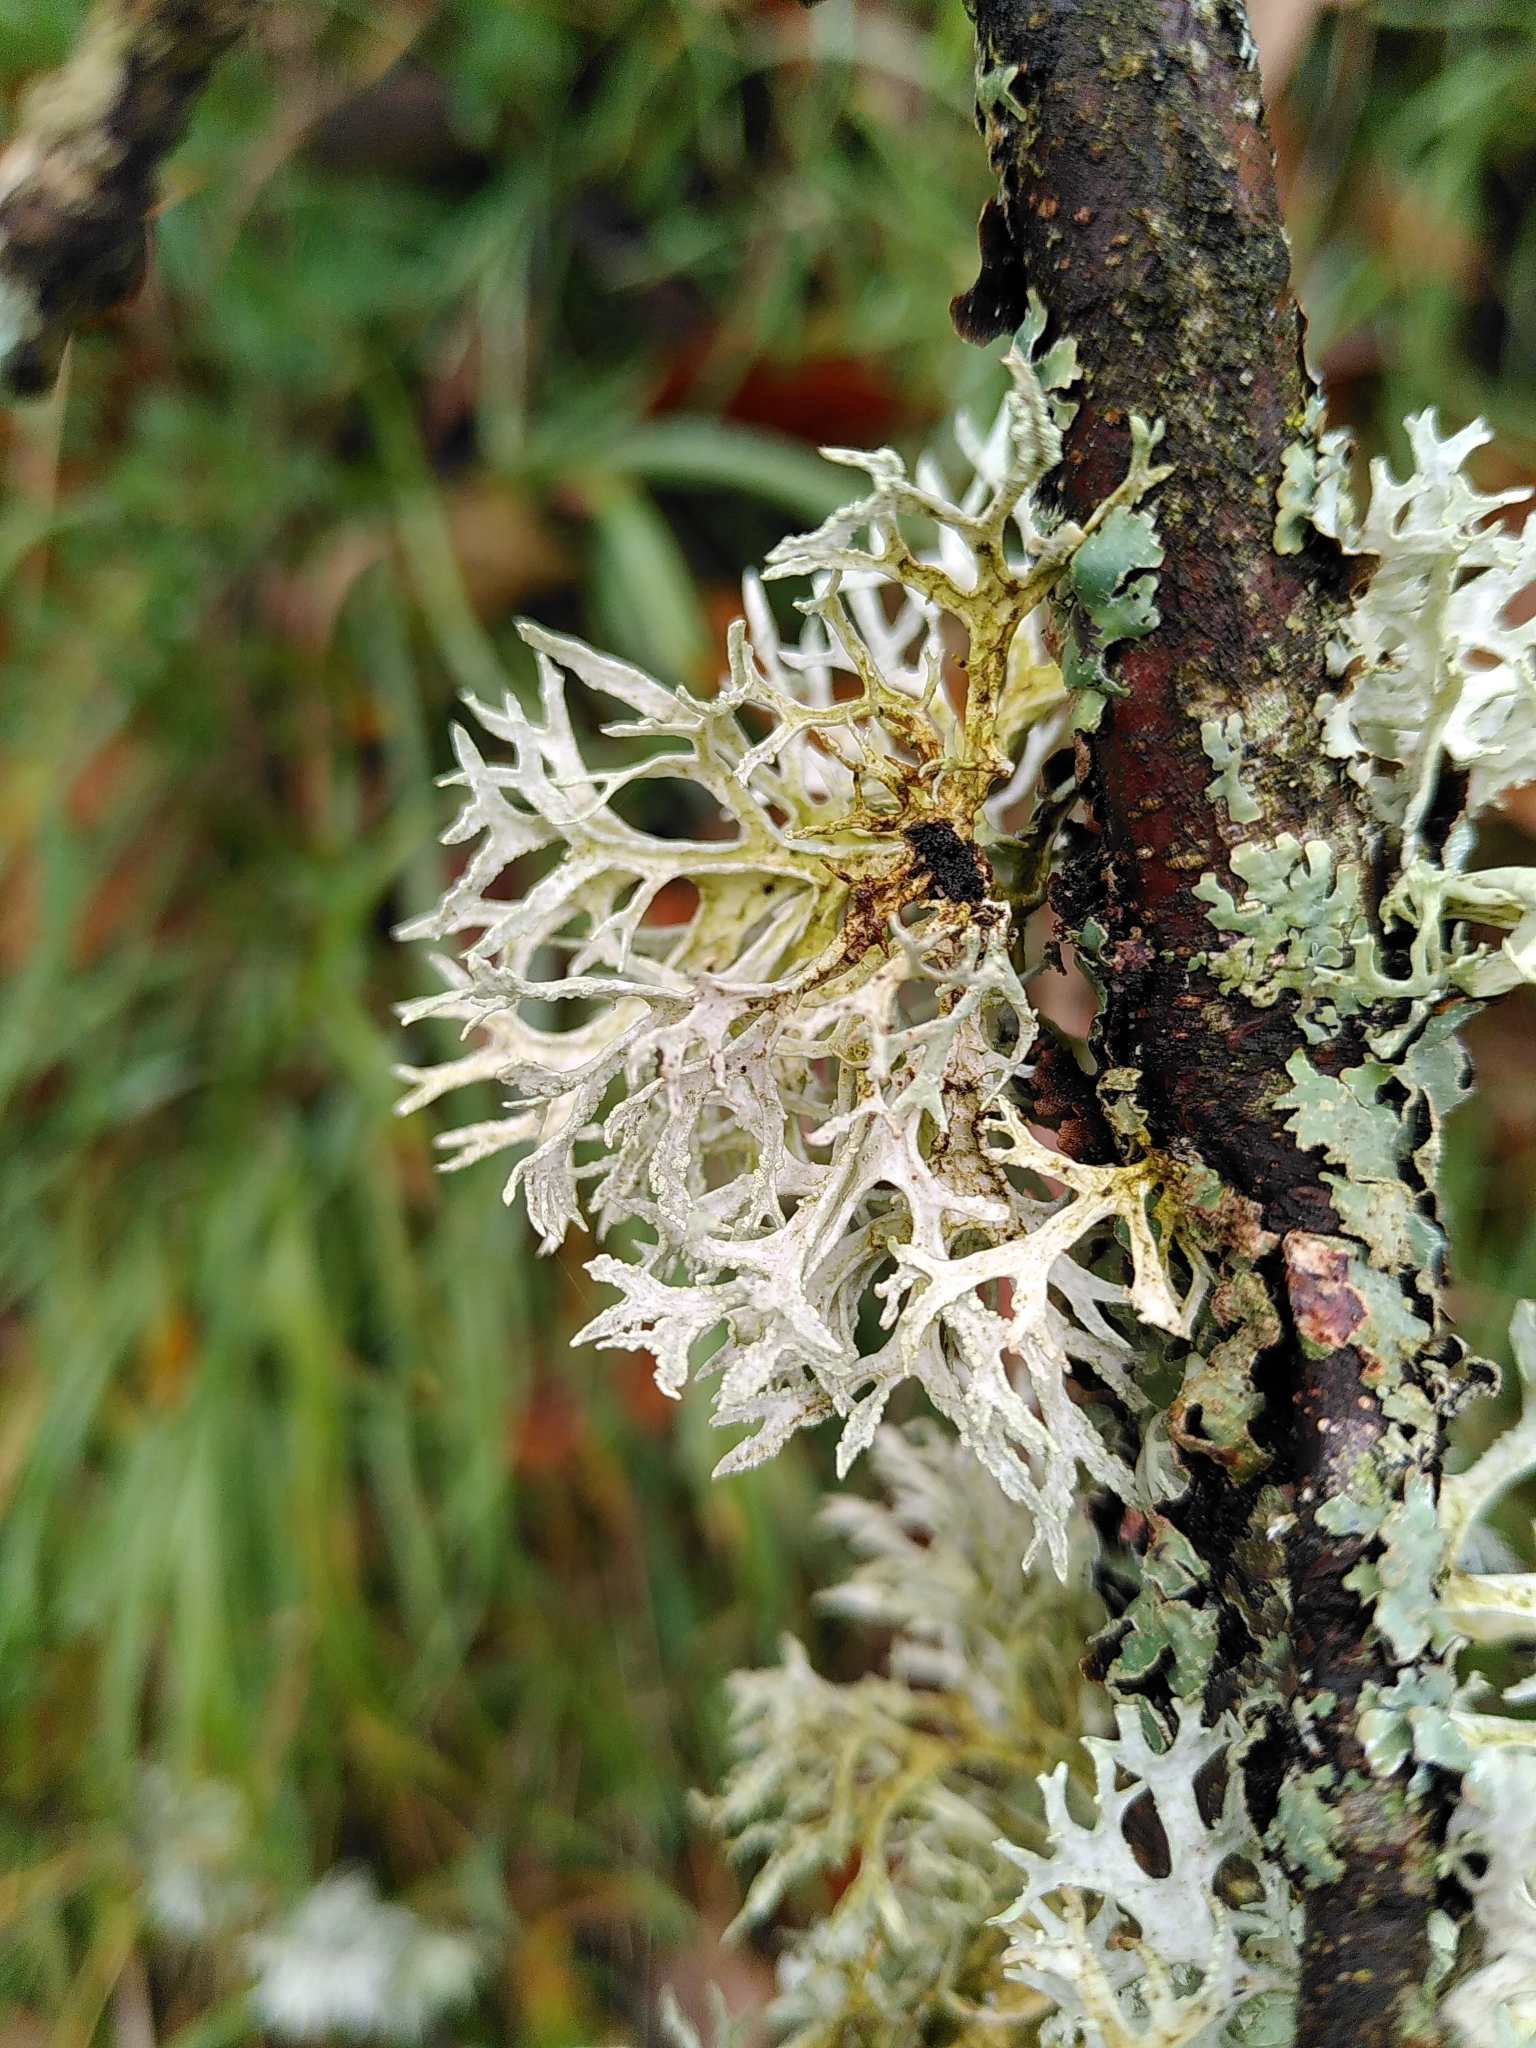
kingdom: Fungi
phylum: Ascomycota
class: Lecanoromycetes
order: Lecanorales
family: Parmeliaceae
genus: Evernia
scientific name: Evernia prunastri
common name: Oak moss
